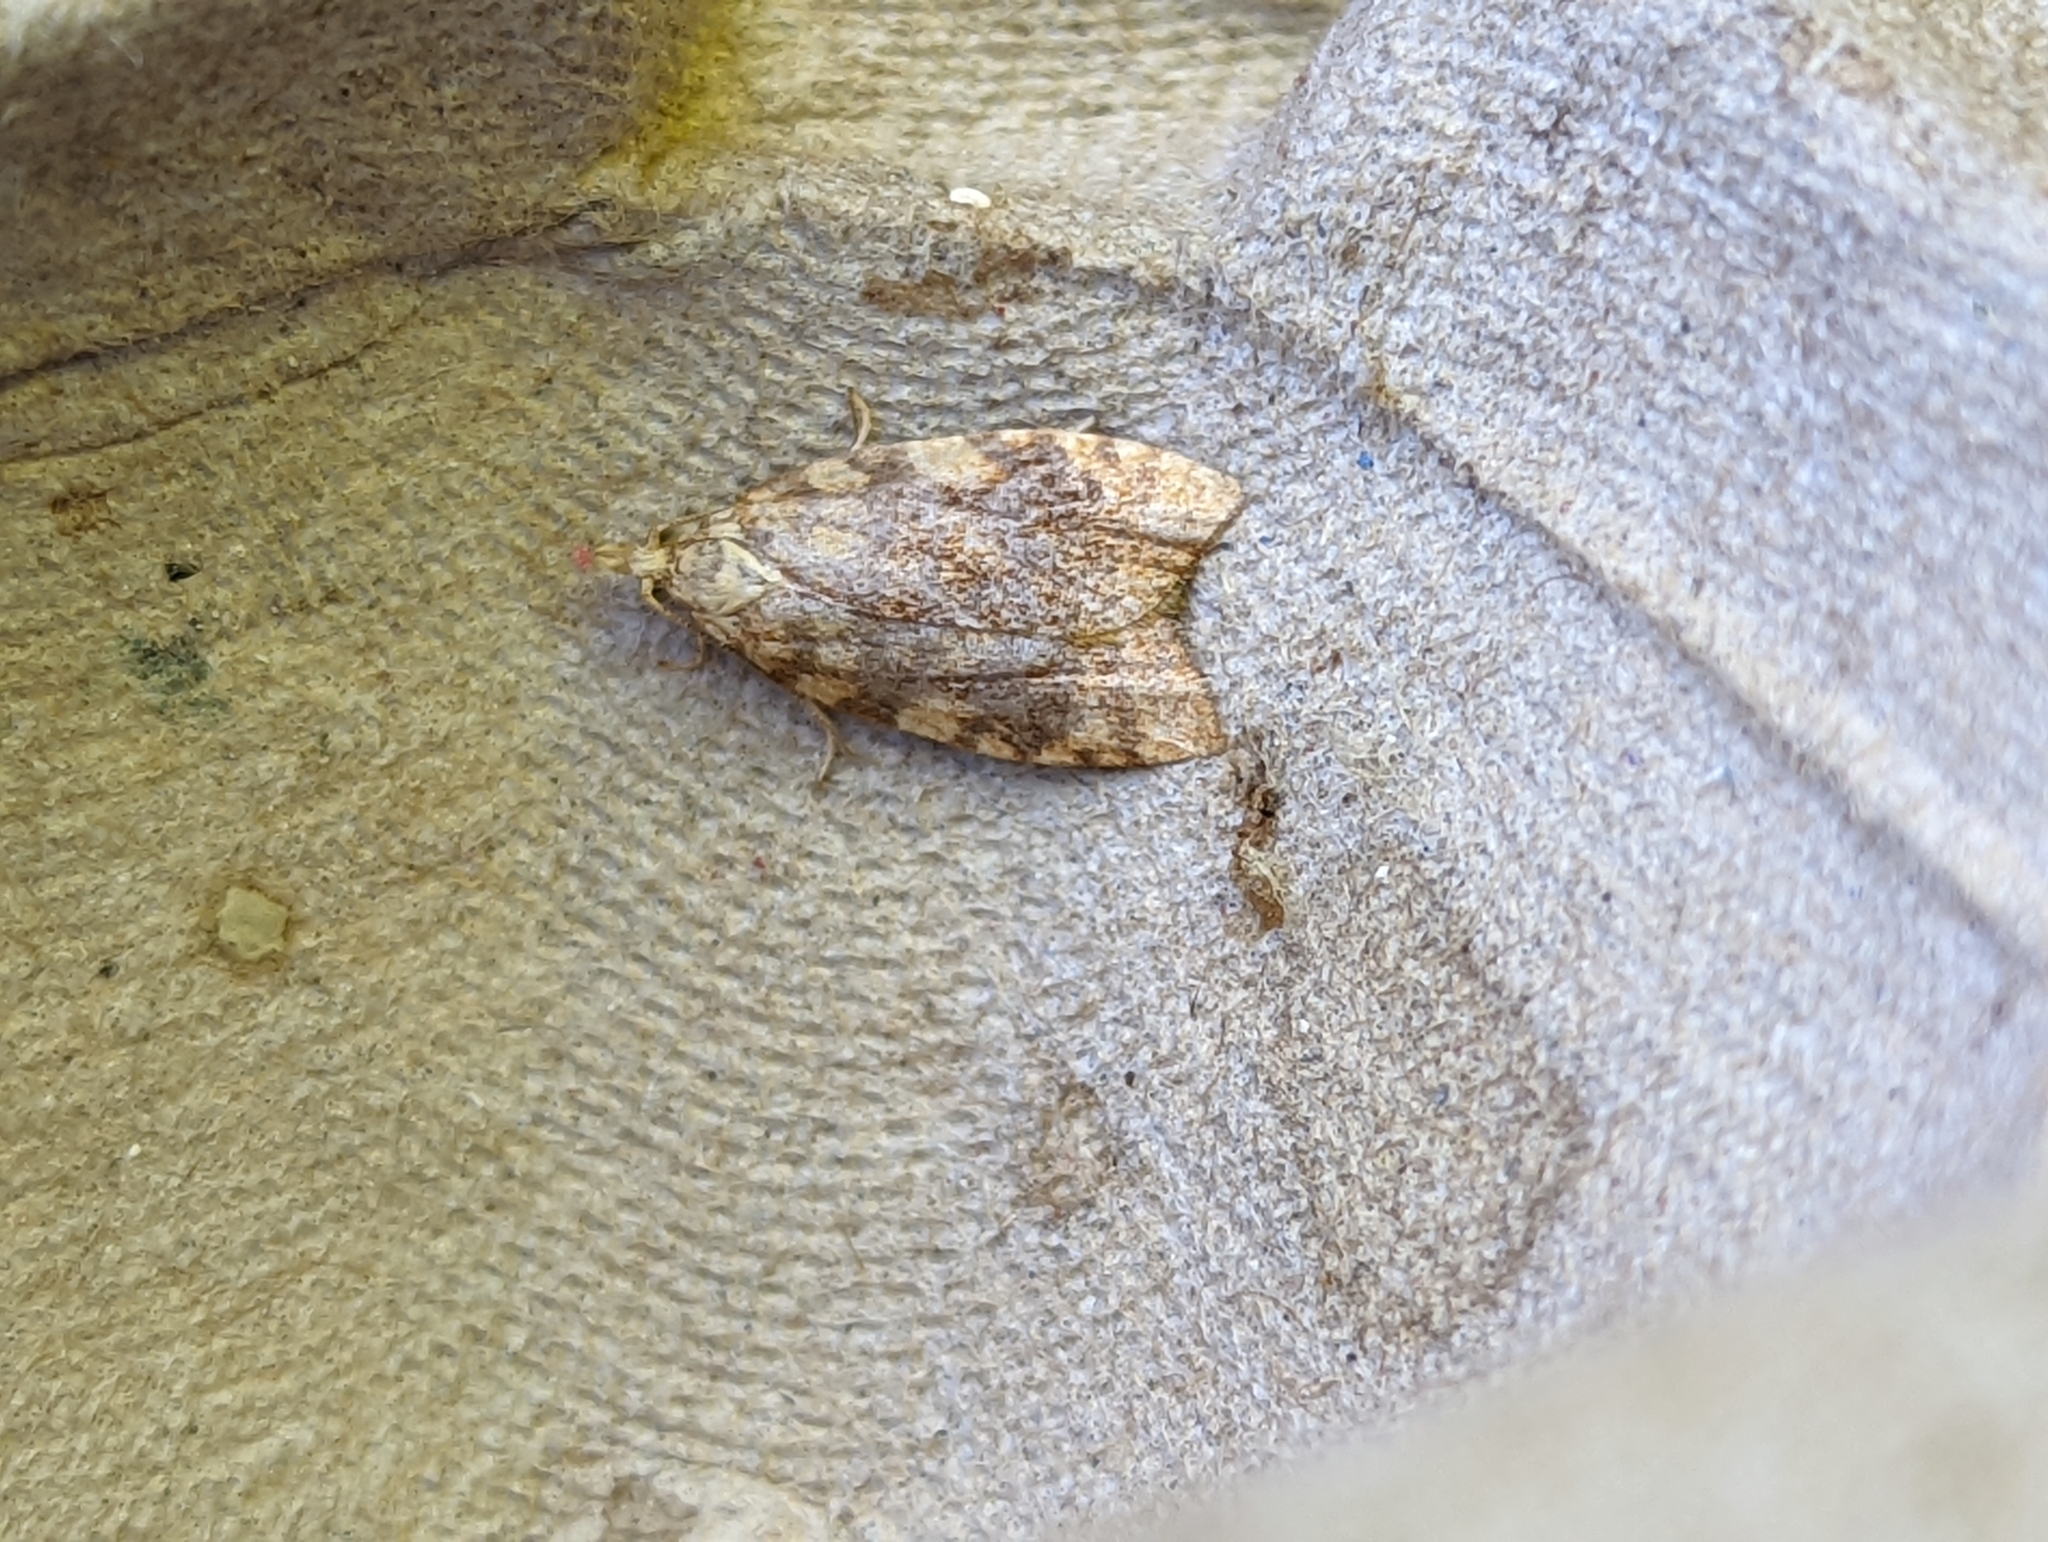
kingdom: Animalia
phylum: Arthropoda
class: Insecta
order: Lepidoptera
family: Tortricidae
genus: Aleimma
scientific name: Aleimma loeflingiana
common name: Yellow oak button
